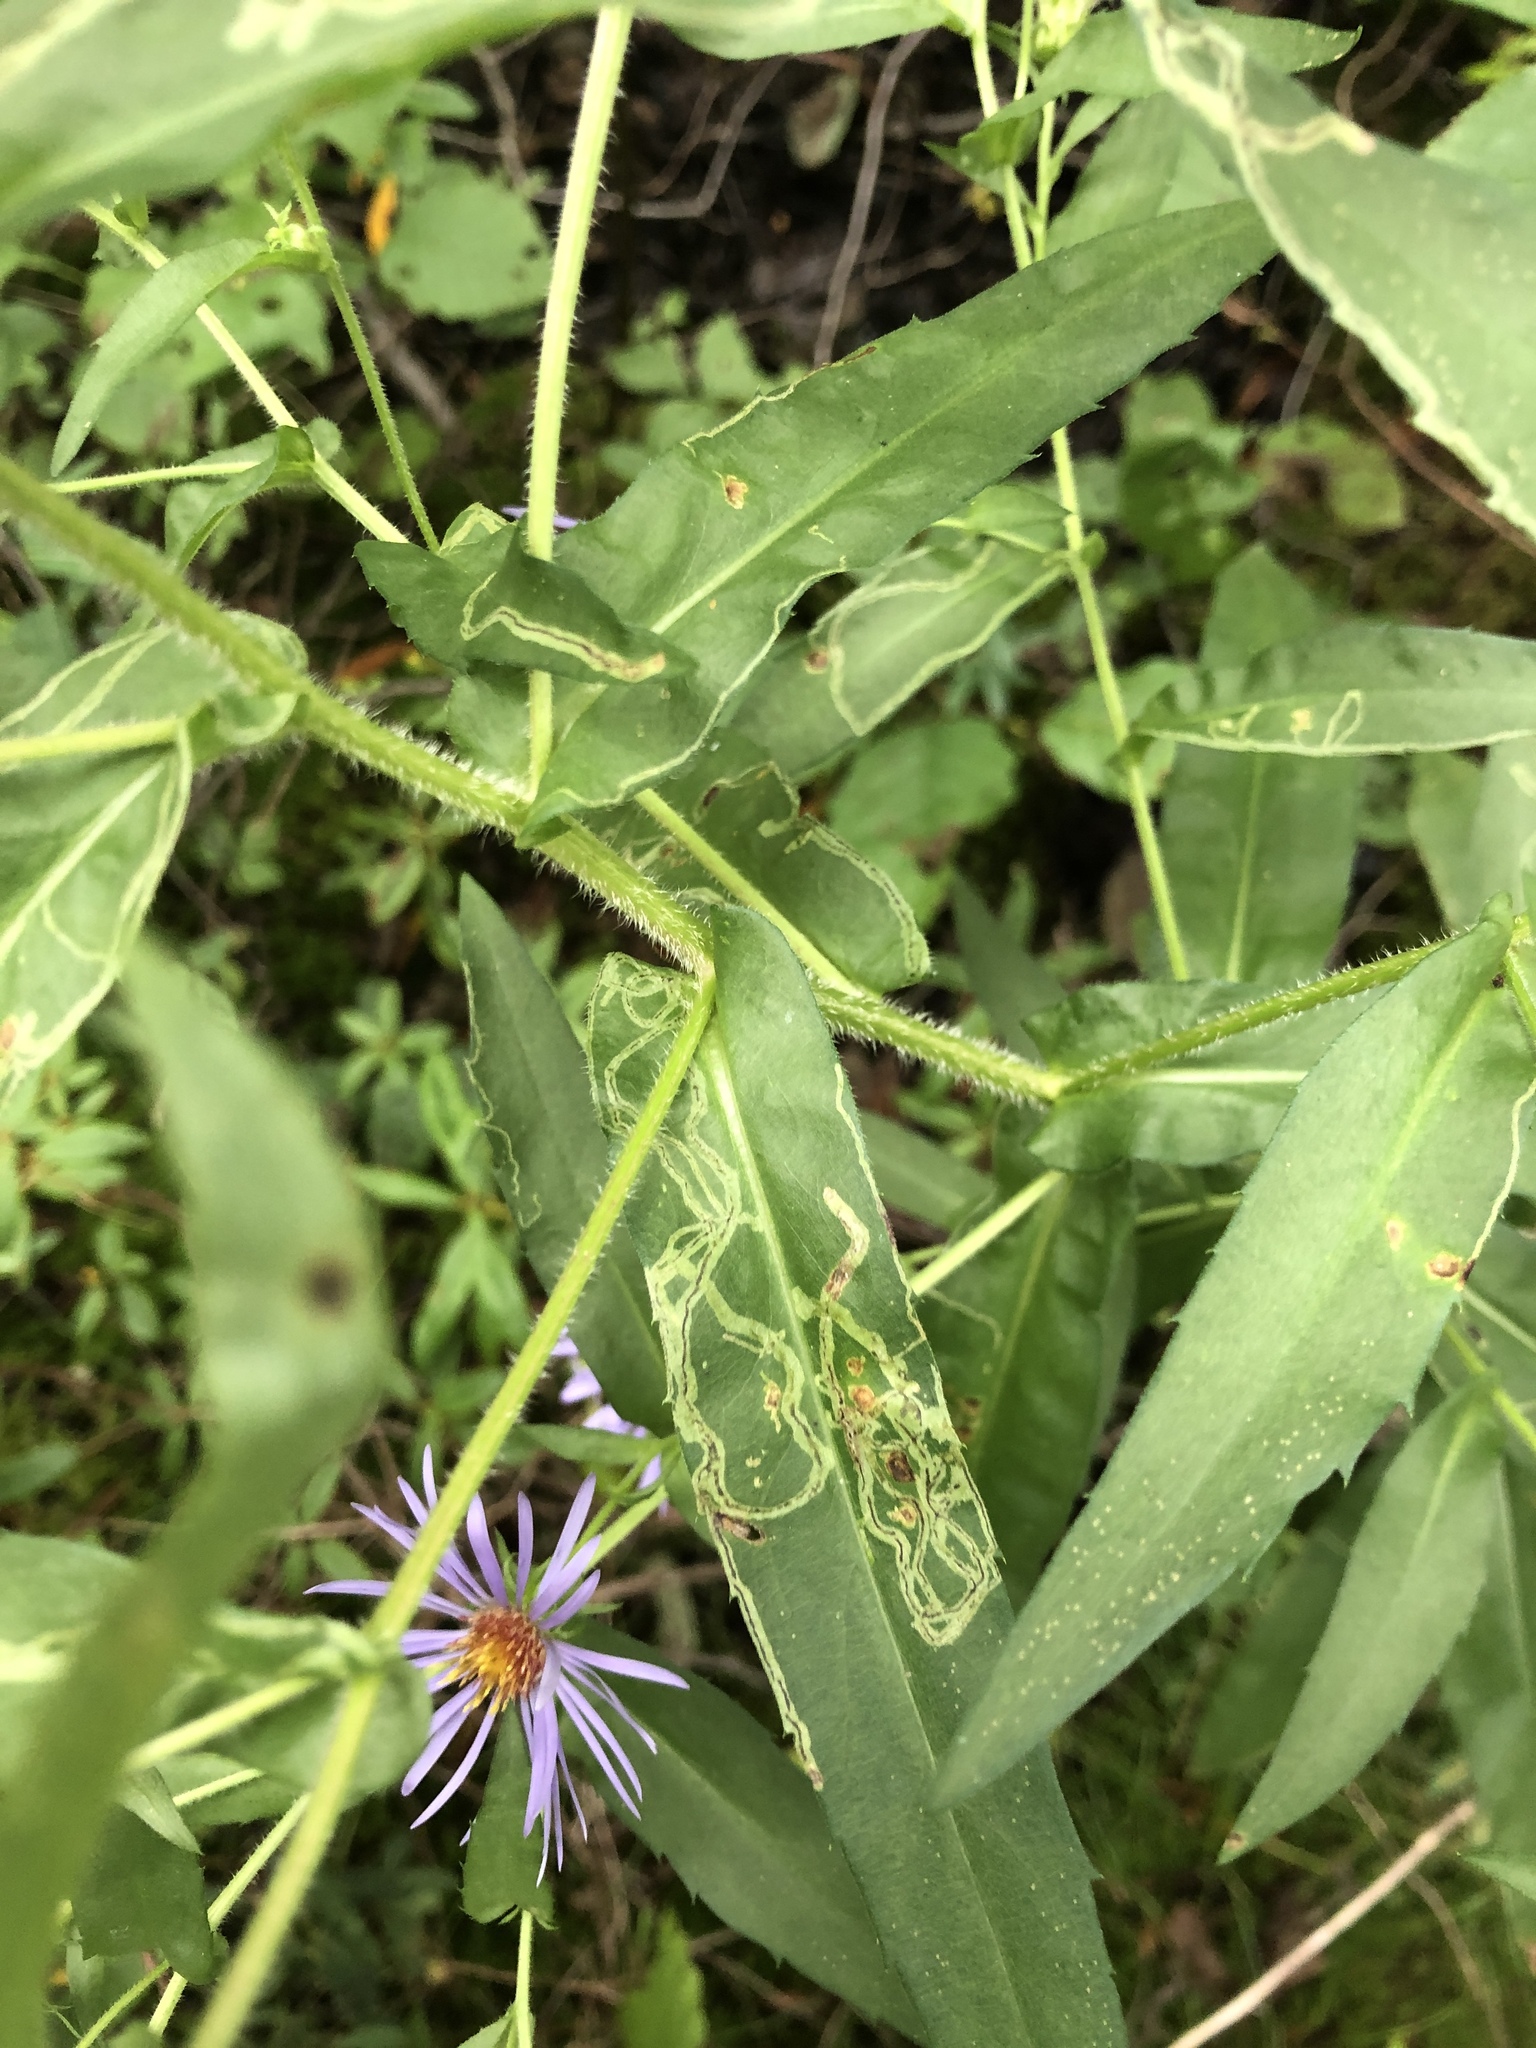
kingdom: Plantae
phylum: Tracheophyta
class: Magnoliopsida
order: Asterales
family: Asteraceae
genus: Symphyotrichum
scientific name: Symphyotrichum puniceum
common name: Bog aster
